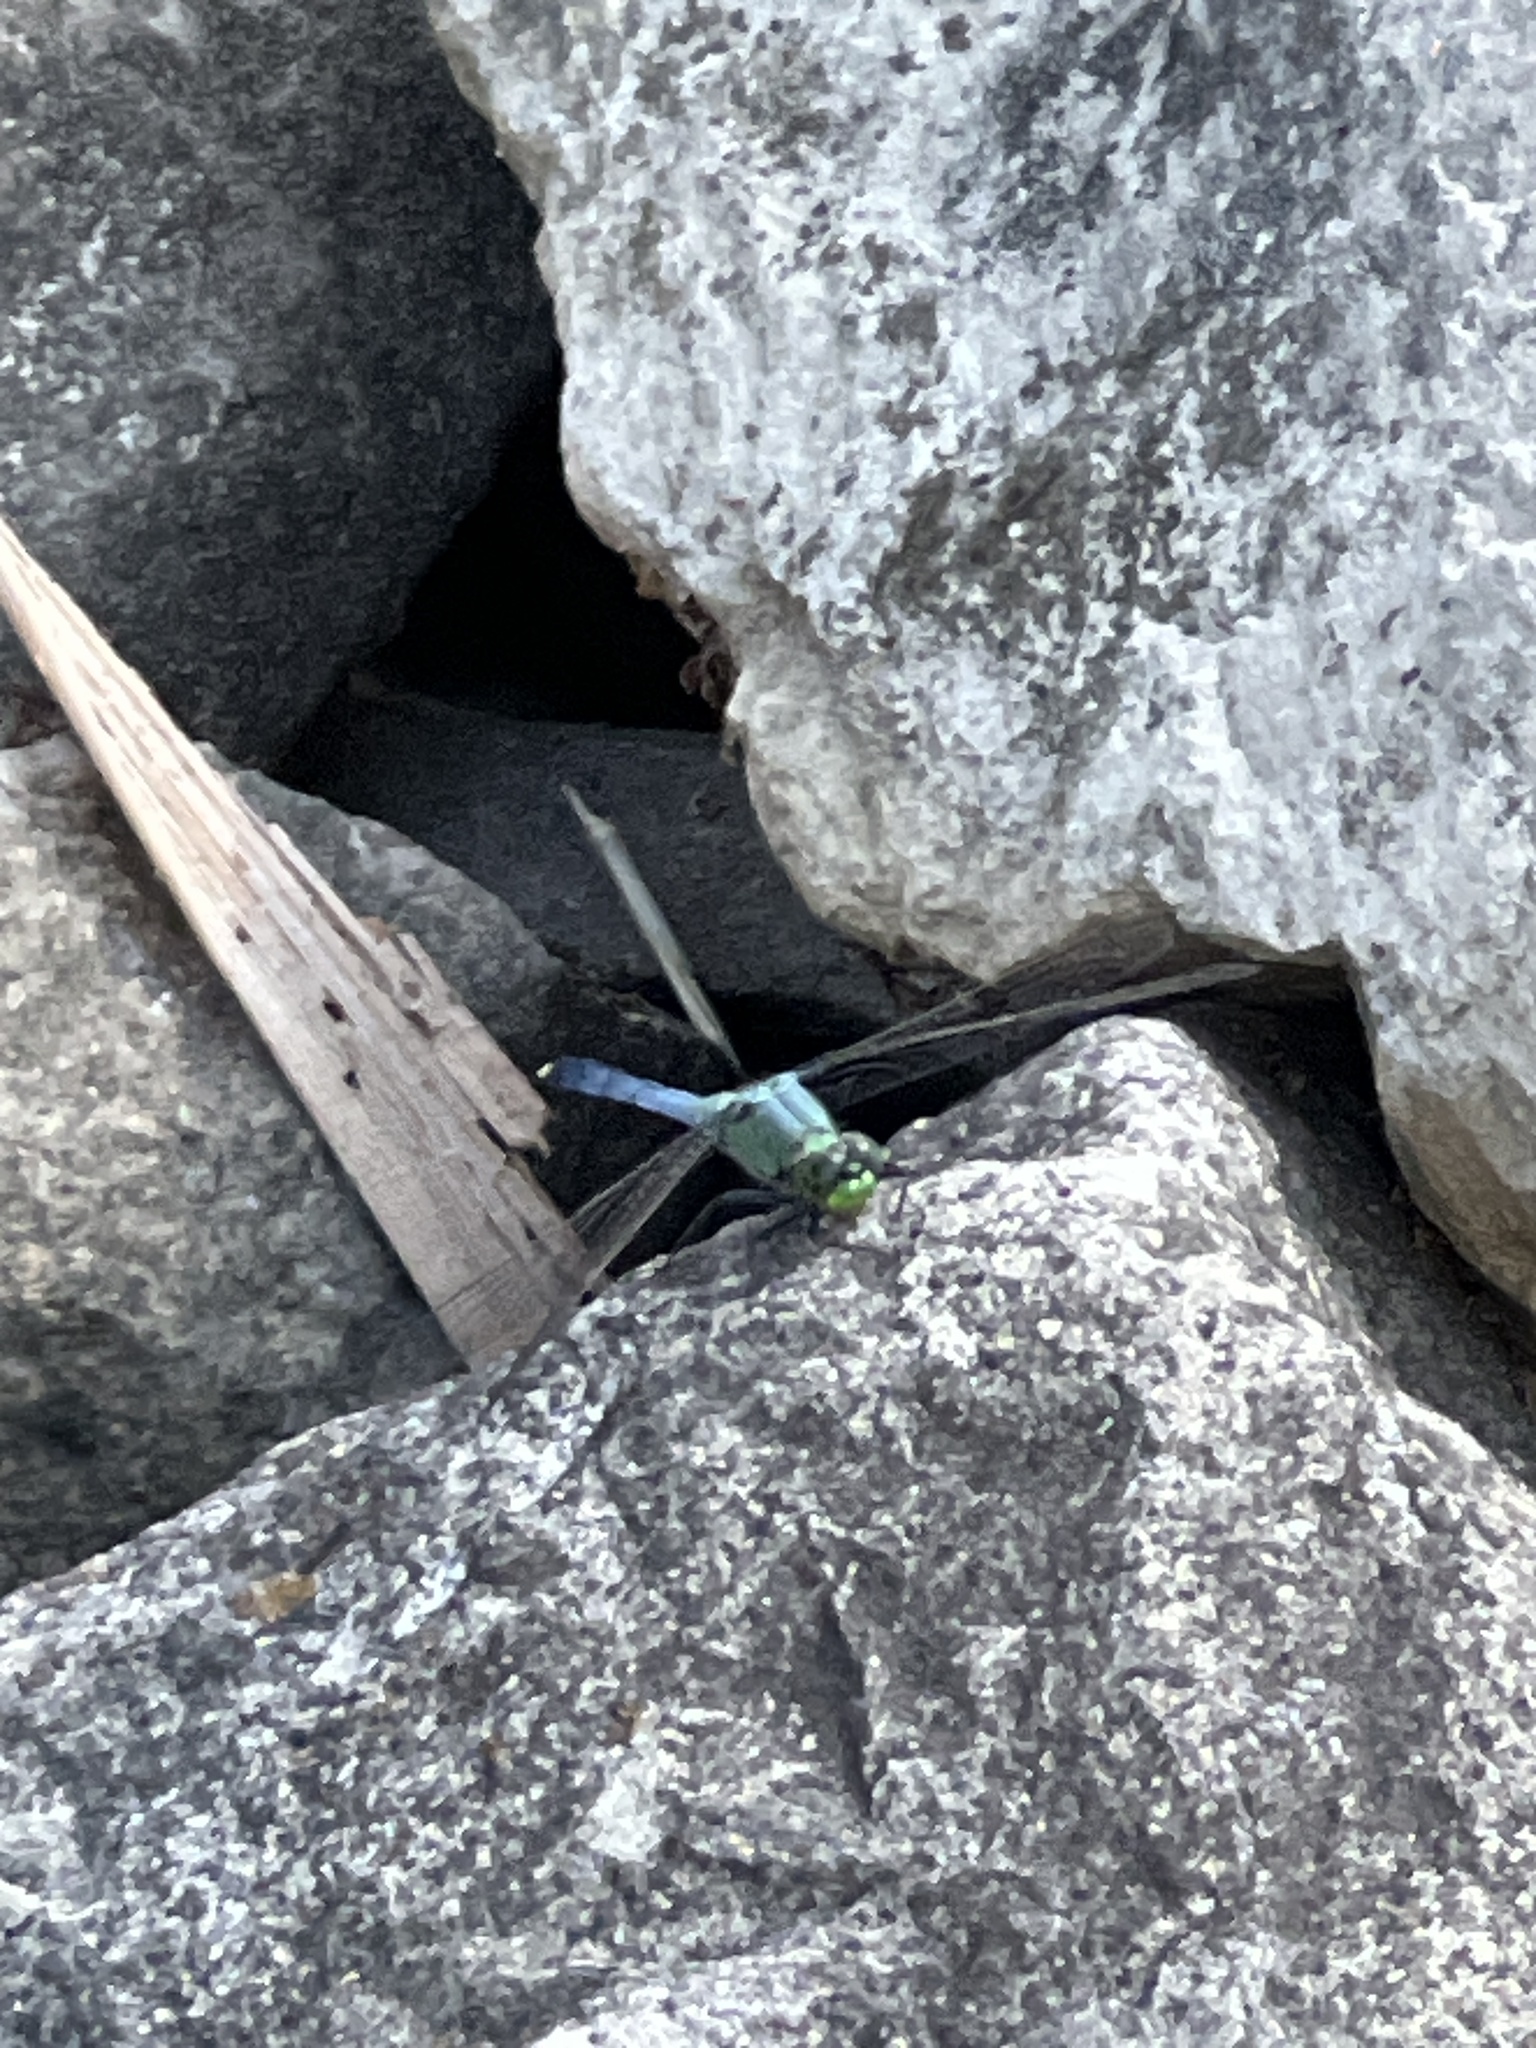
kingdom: Animalia
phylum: Arthropoda
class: Insecta
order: Odonata
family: Libellulidae
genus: Erythemis
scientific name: Erythemis simplicicollis
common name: Eastern pondhawk
